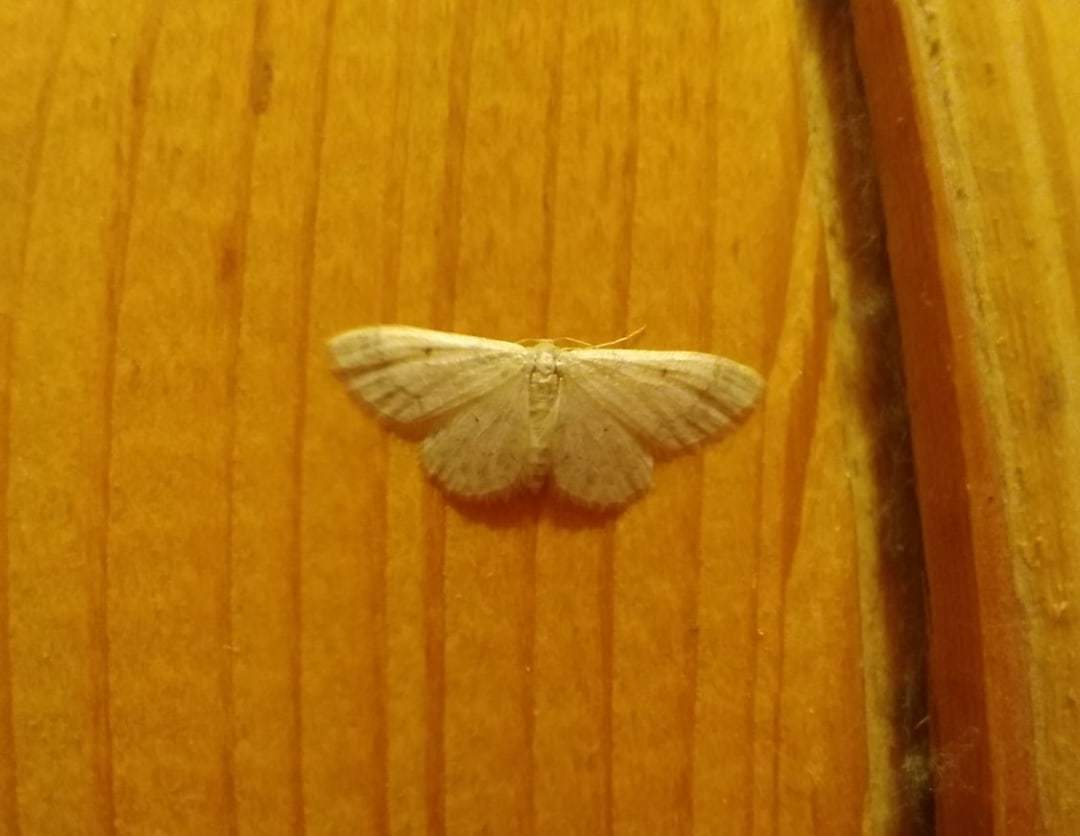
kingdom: Animalia
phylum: Arthropoda
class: Insecta
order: Lepidoptera
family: Geometridae
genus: Idaea
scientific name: Idaea biselata
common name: Small fan-footed wave
